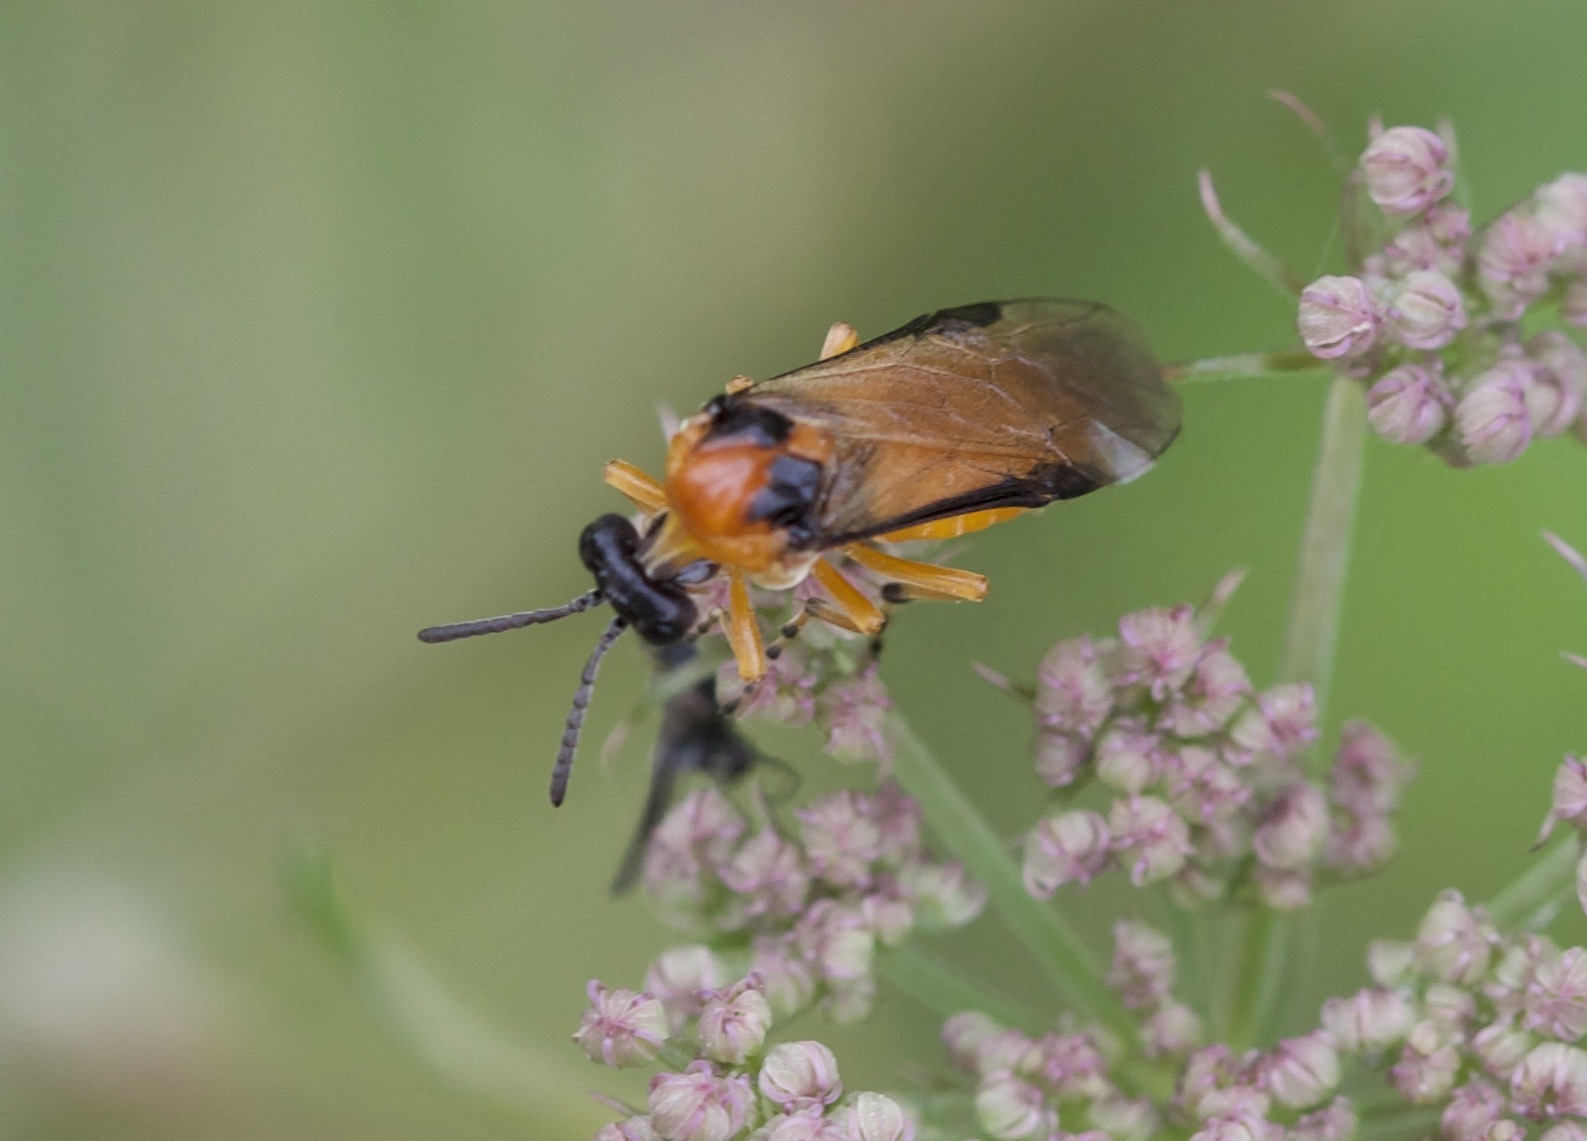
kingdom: Animalia
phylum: Arthropoda
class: Insecta
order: Hymenoptera
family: Tenthredinidae
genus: Athalia
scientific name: Athalia rosae
